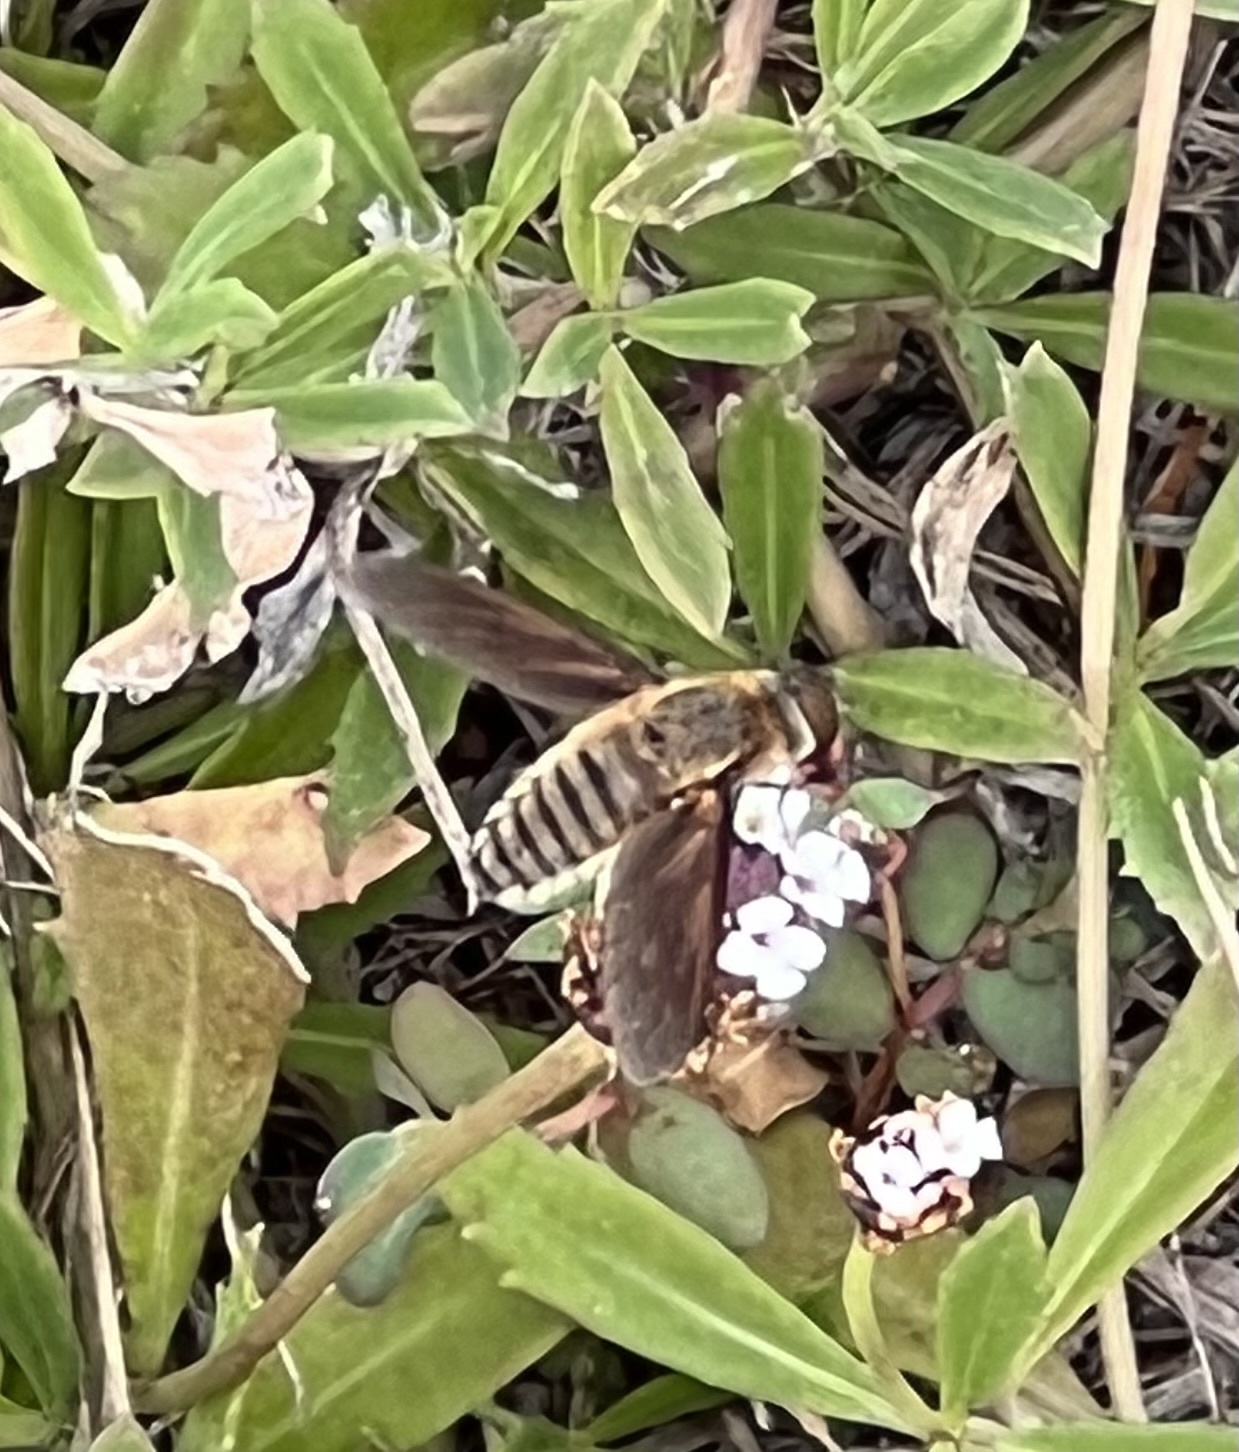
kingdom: Animalia
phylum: Arthropoda
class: Insecta
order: Diptera
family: Bombyliidae
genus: Poecilanthrax
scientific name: Poecilanthrax lucifer
